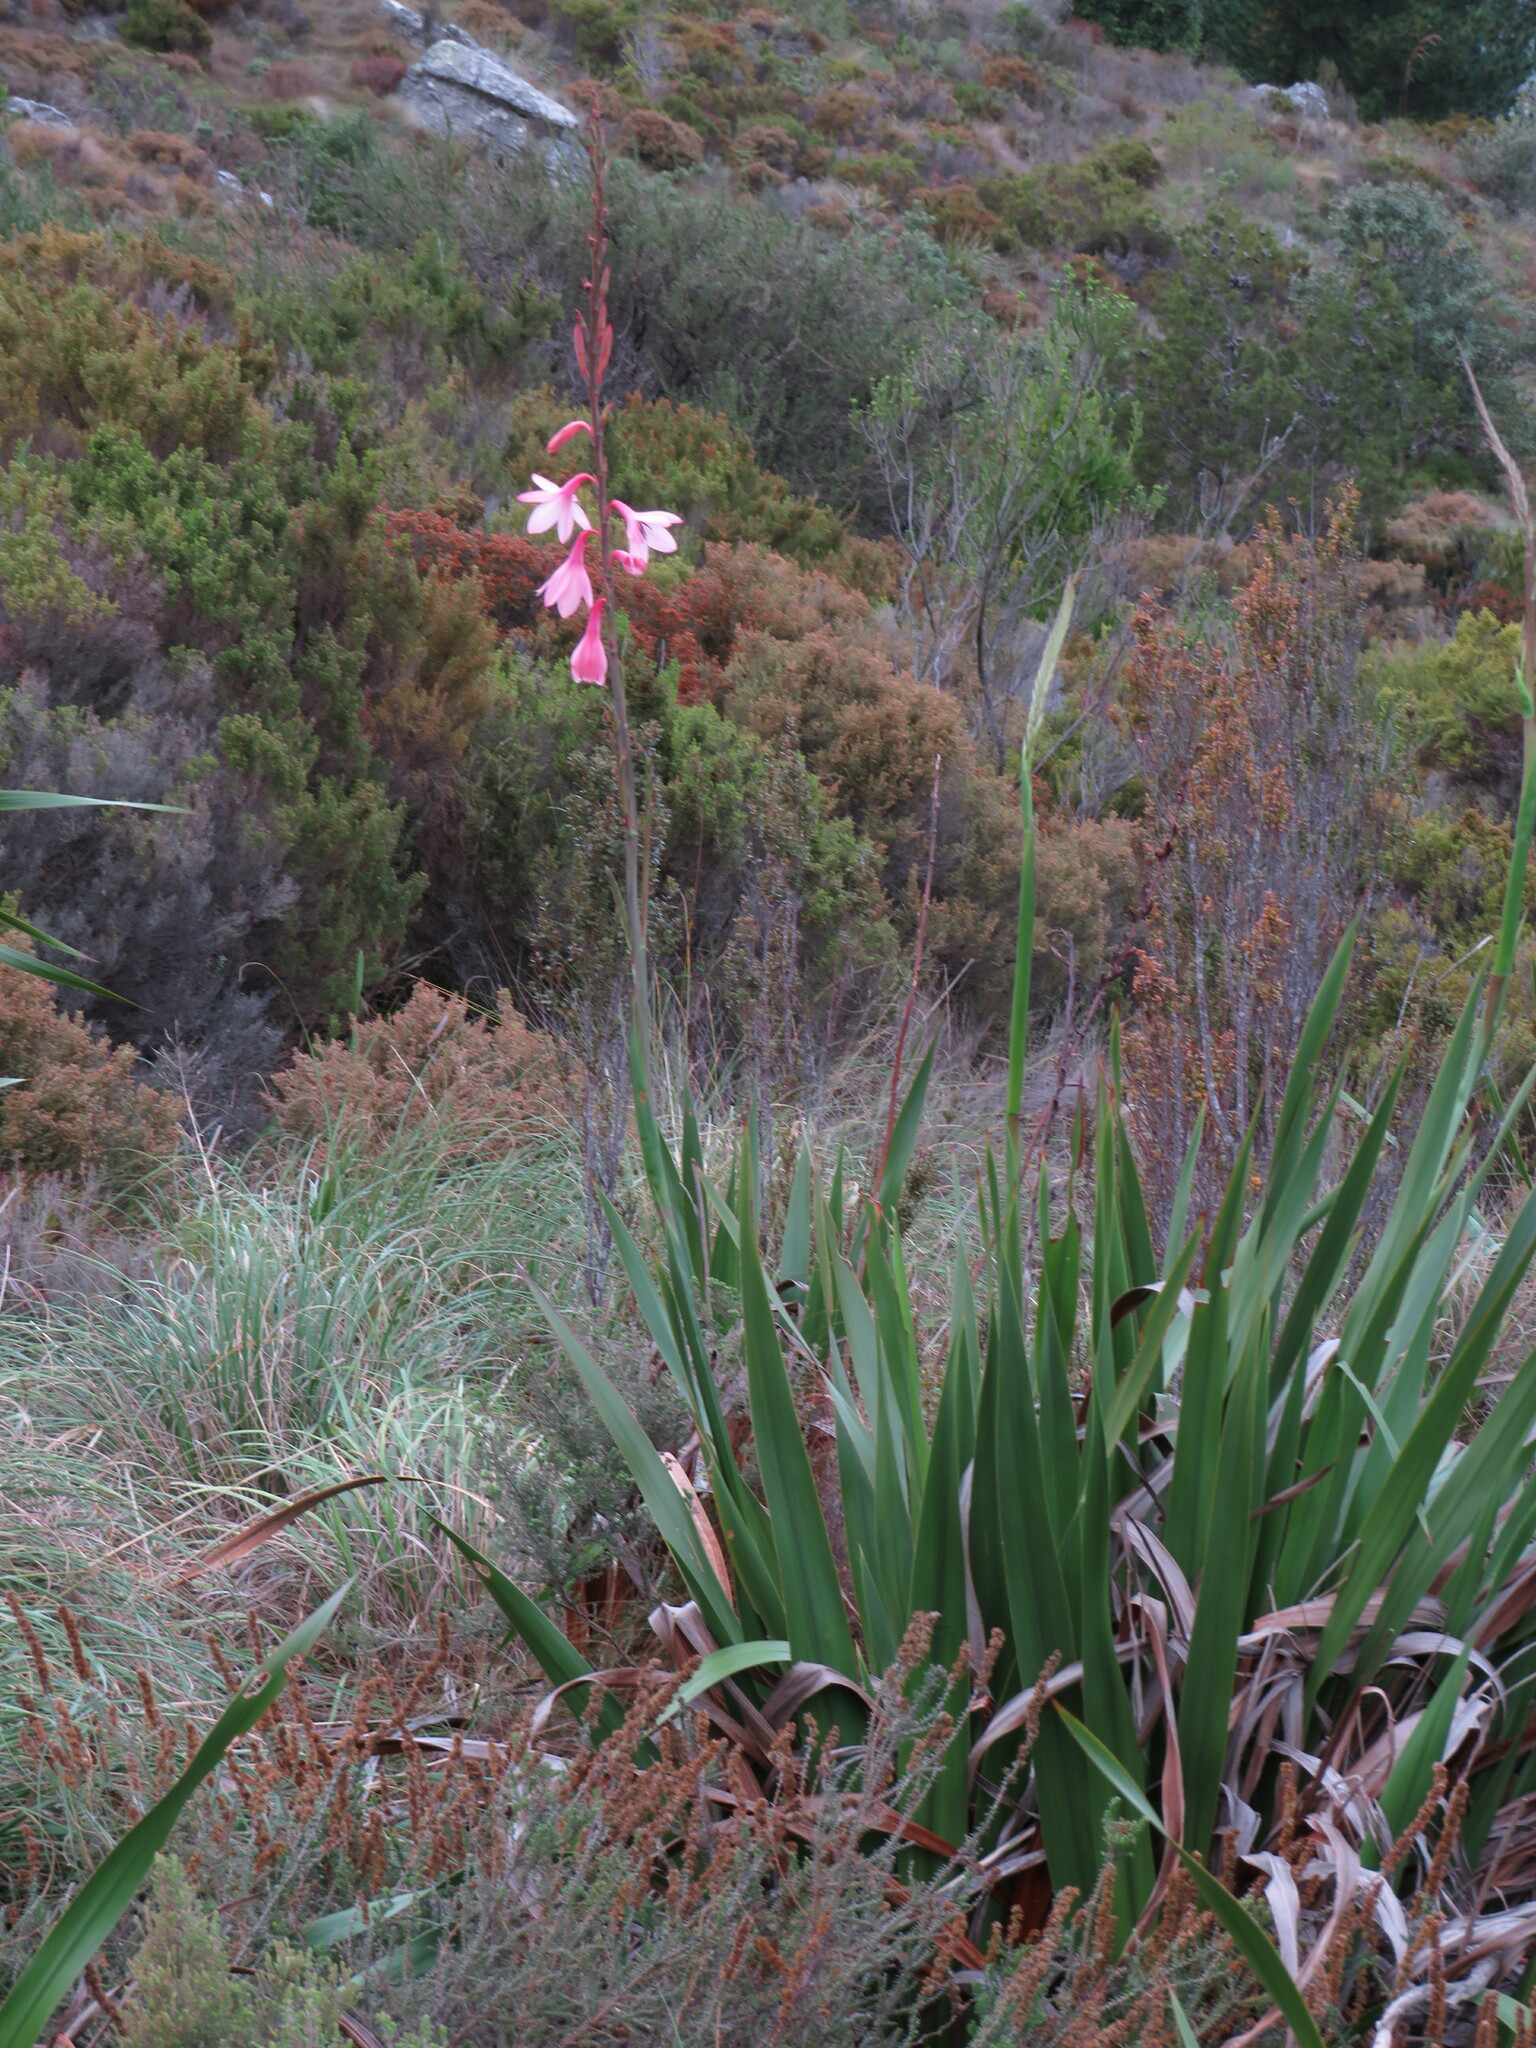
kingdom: Plantae
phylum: Tracheophyta
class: Liliopsida
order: Asparagales
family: Iridaceae
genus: Watsonia
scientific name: Watsonia borbonica
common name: Bugle-lily
